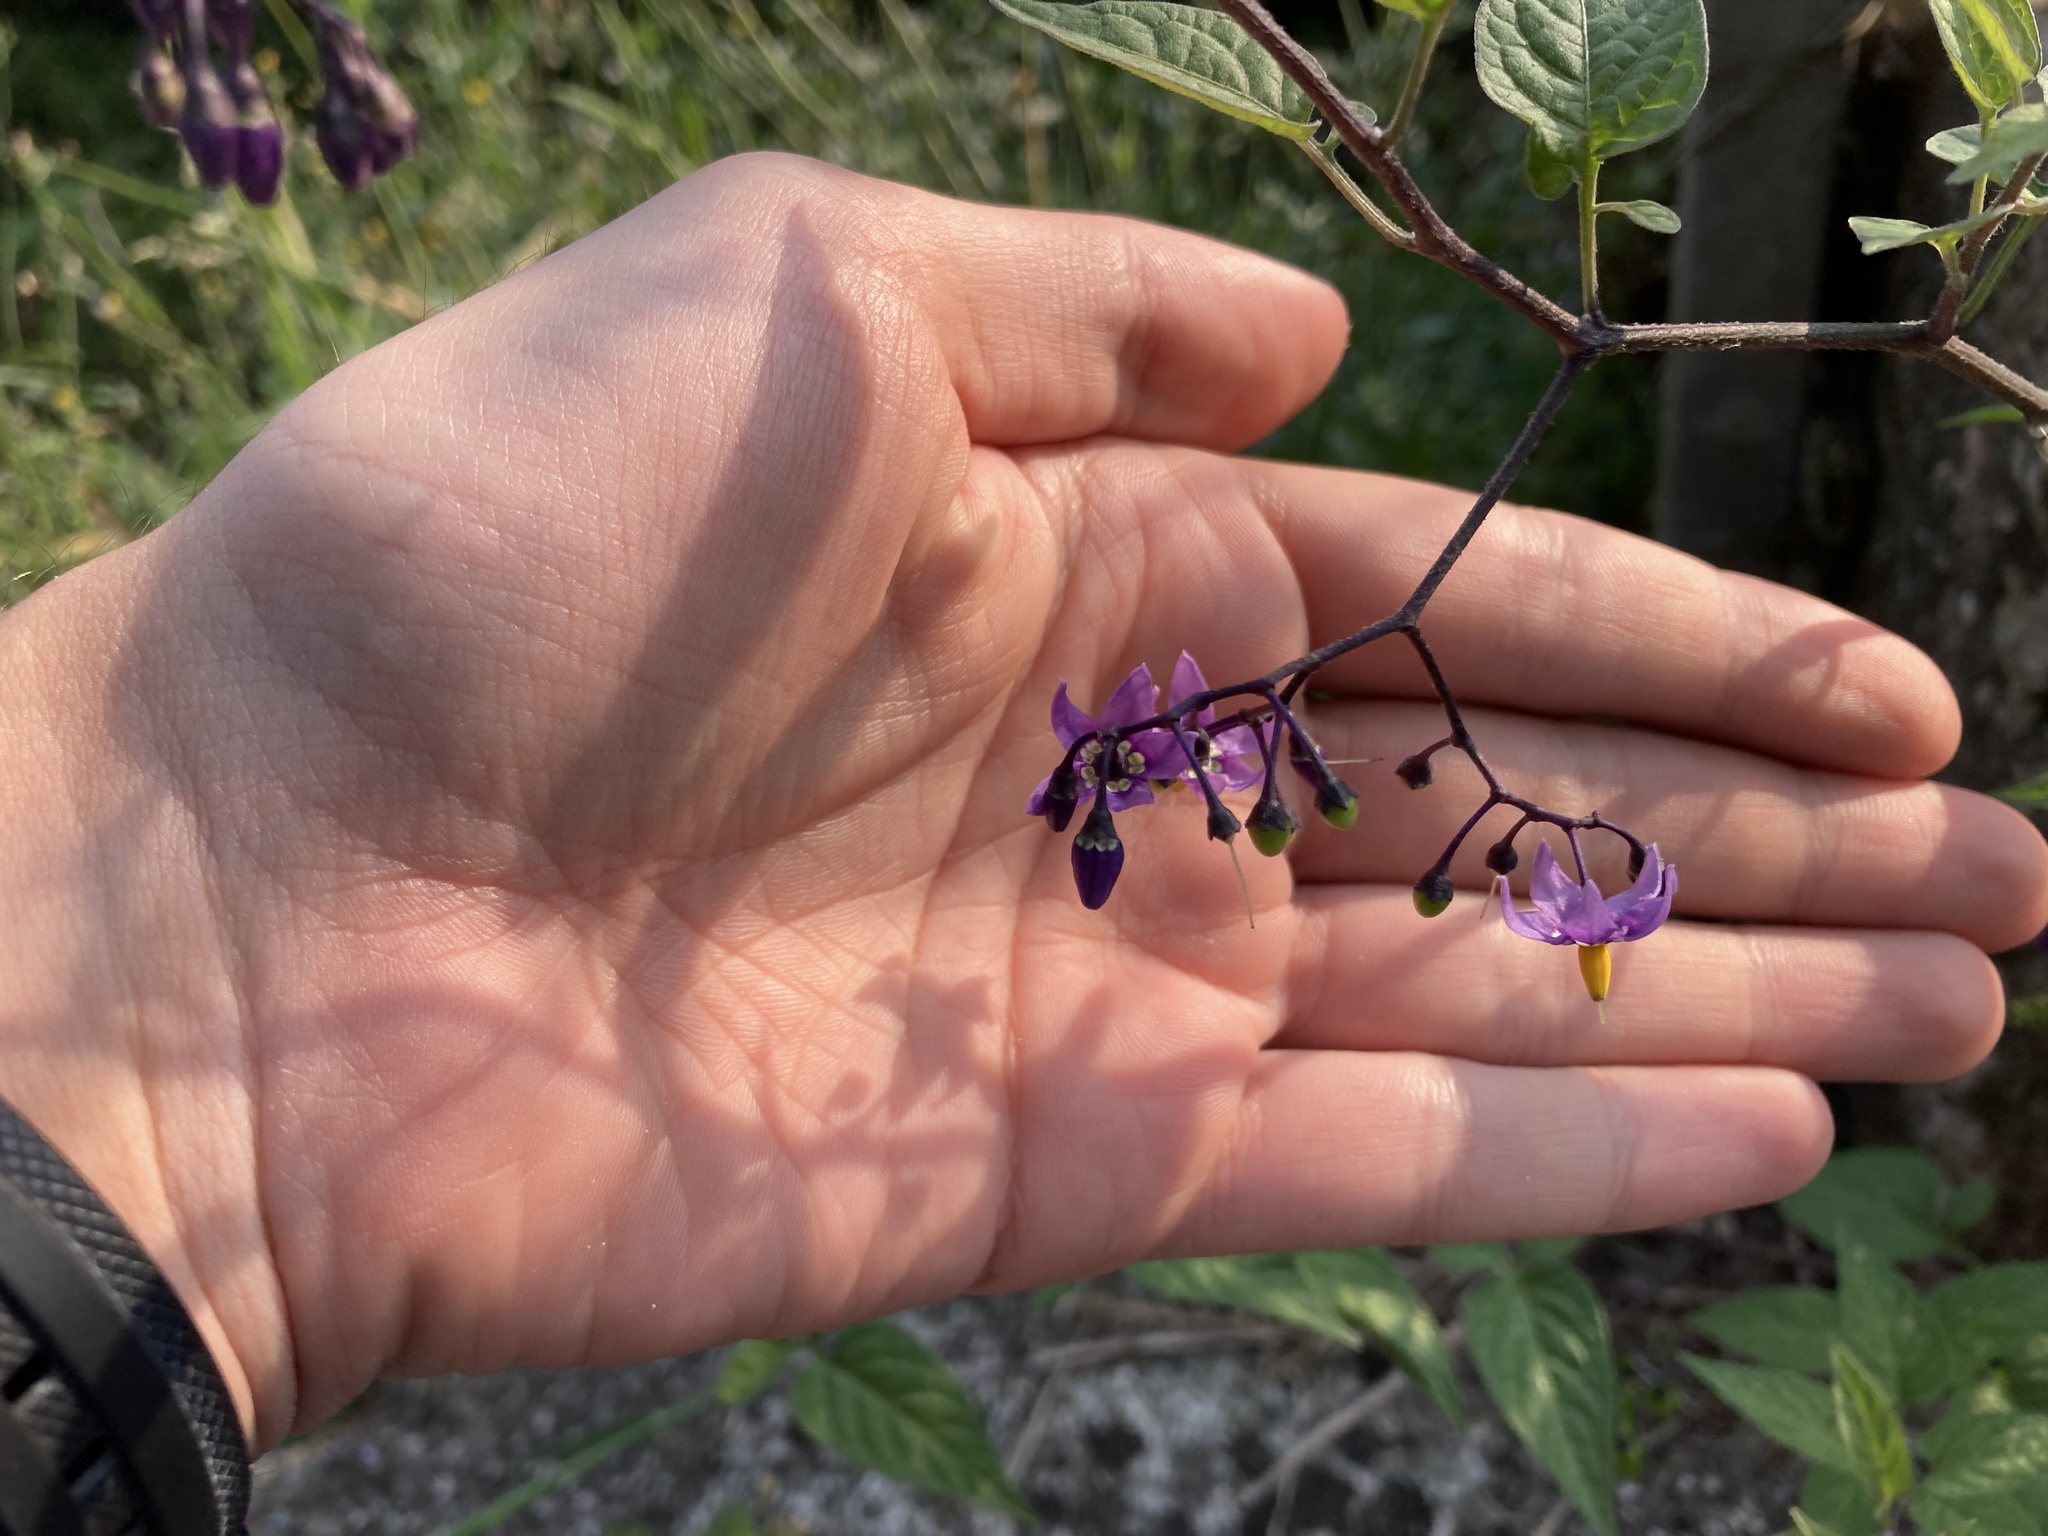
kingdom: Plantae
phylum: Tracheophyta
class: Magnoliopsida
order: Solanales
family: Solanaceae
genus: Solanum
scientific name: Solanum dulcamara
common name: Climbing nightshade
